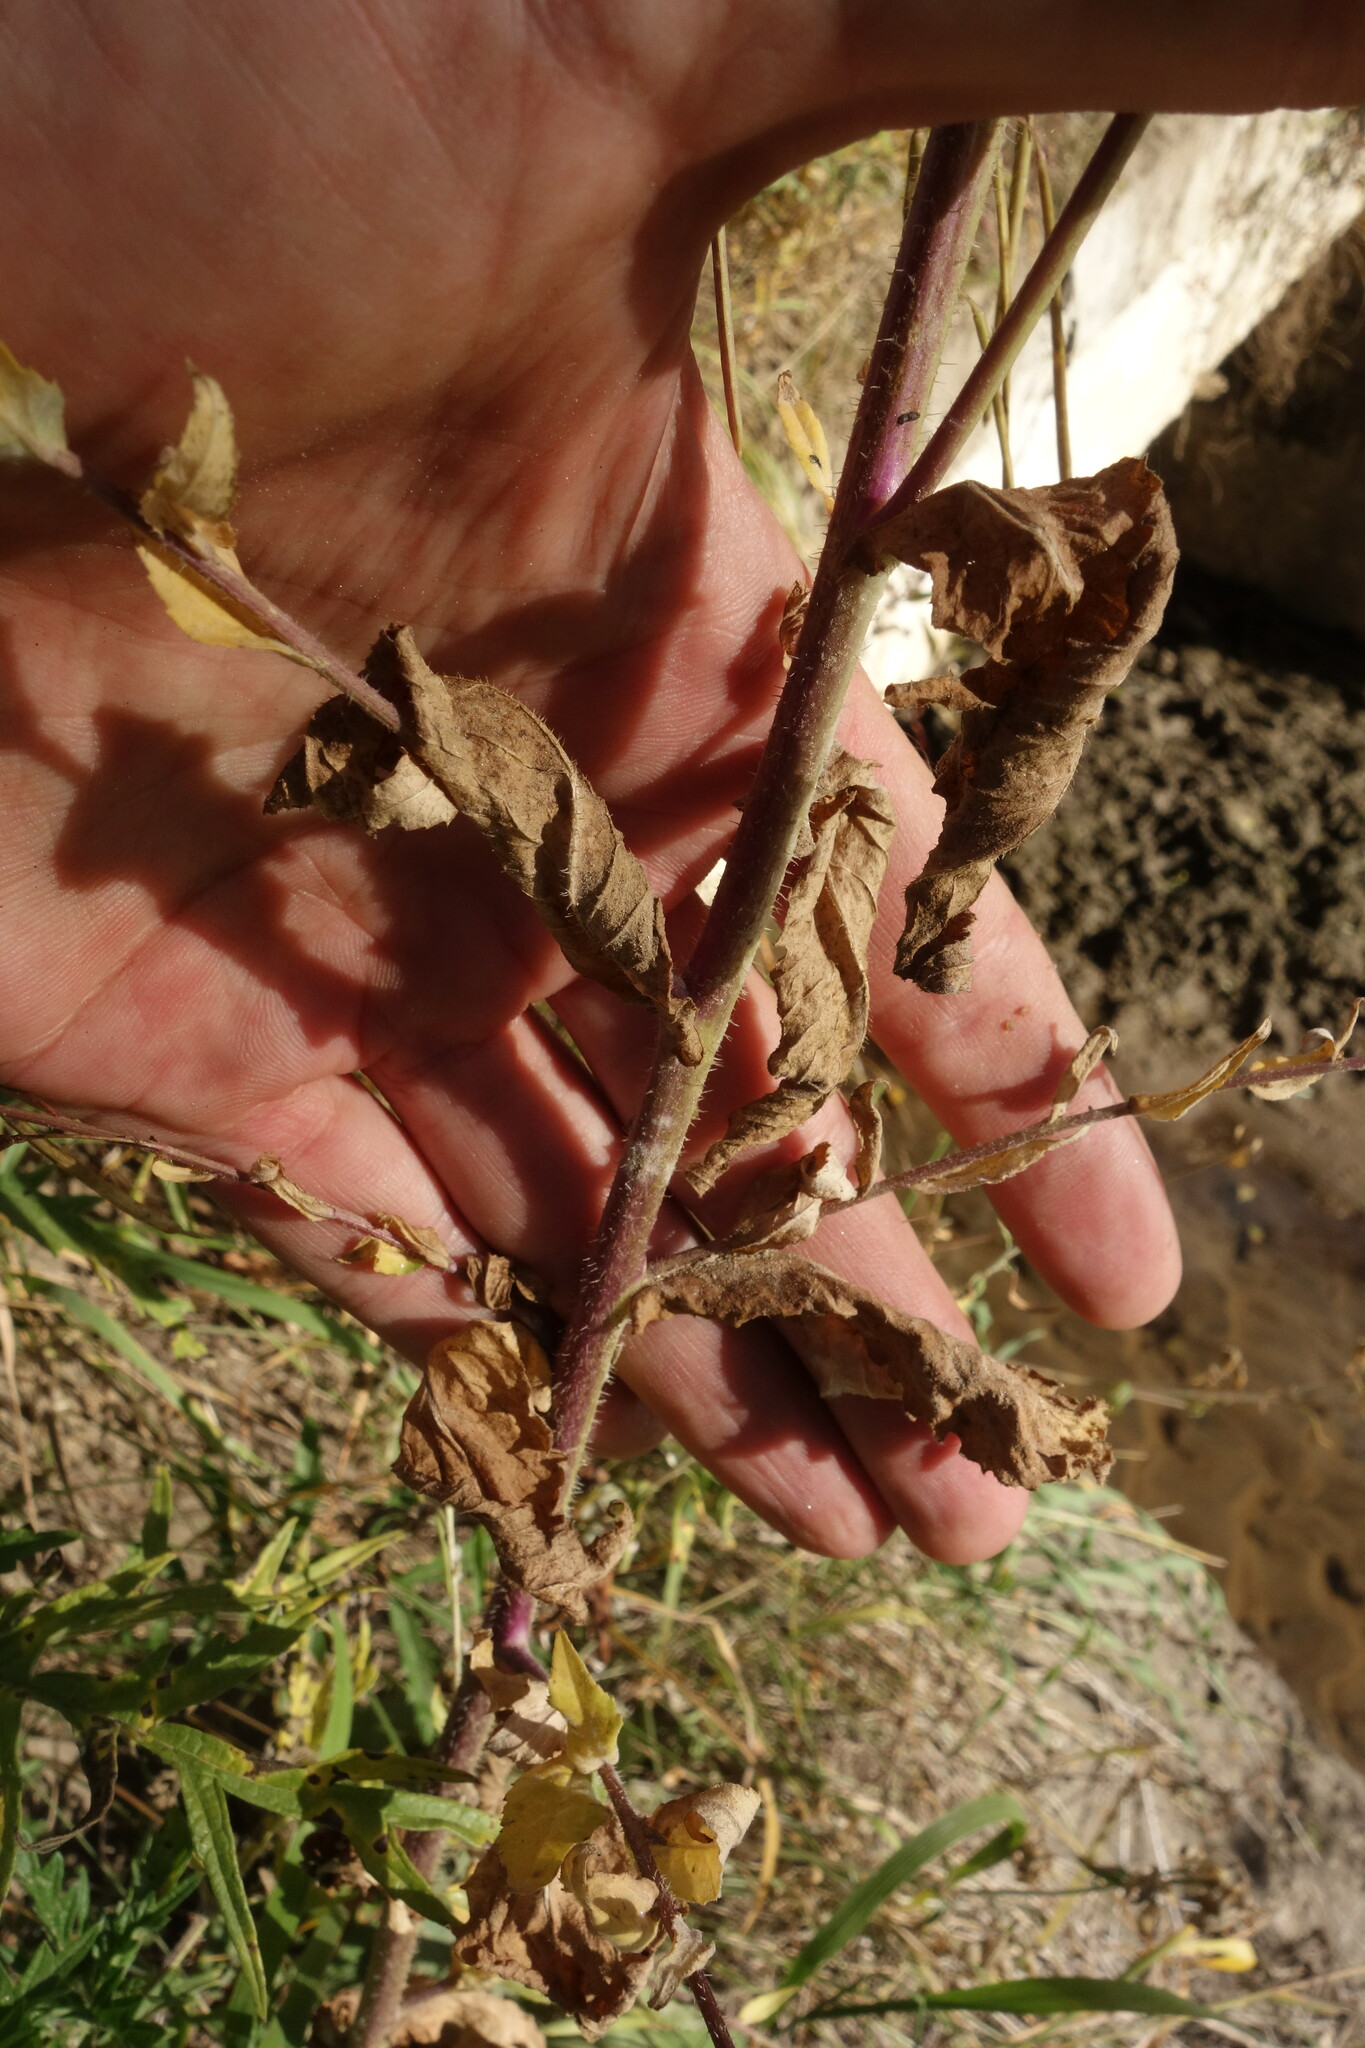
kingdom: Plantae
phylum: Tracheophyta
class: Magnoliopsida
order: Brassicales
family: Brassicaceae
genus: Catolobus
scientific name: Catolobus pendulus
